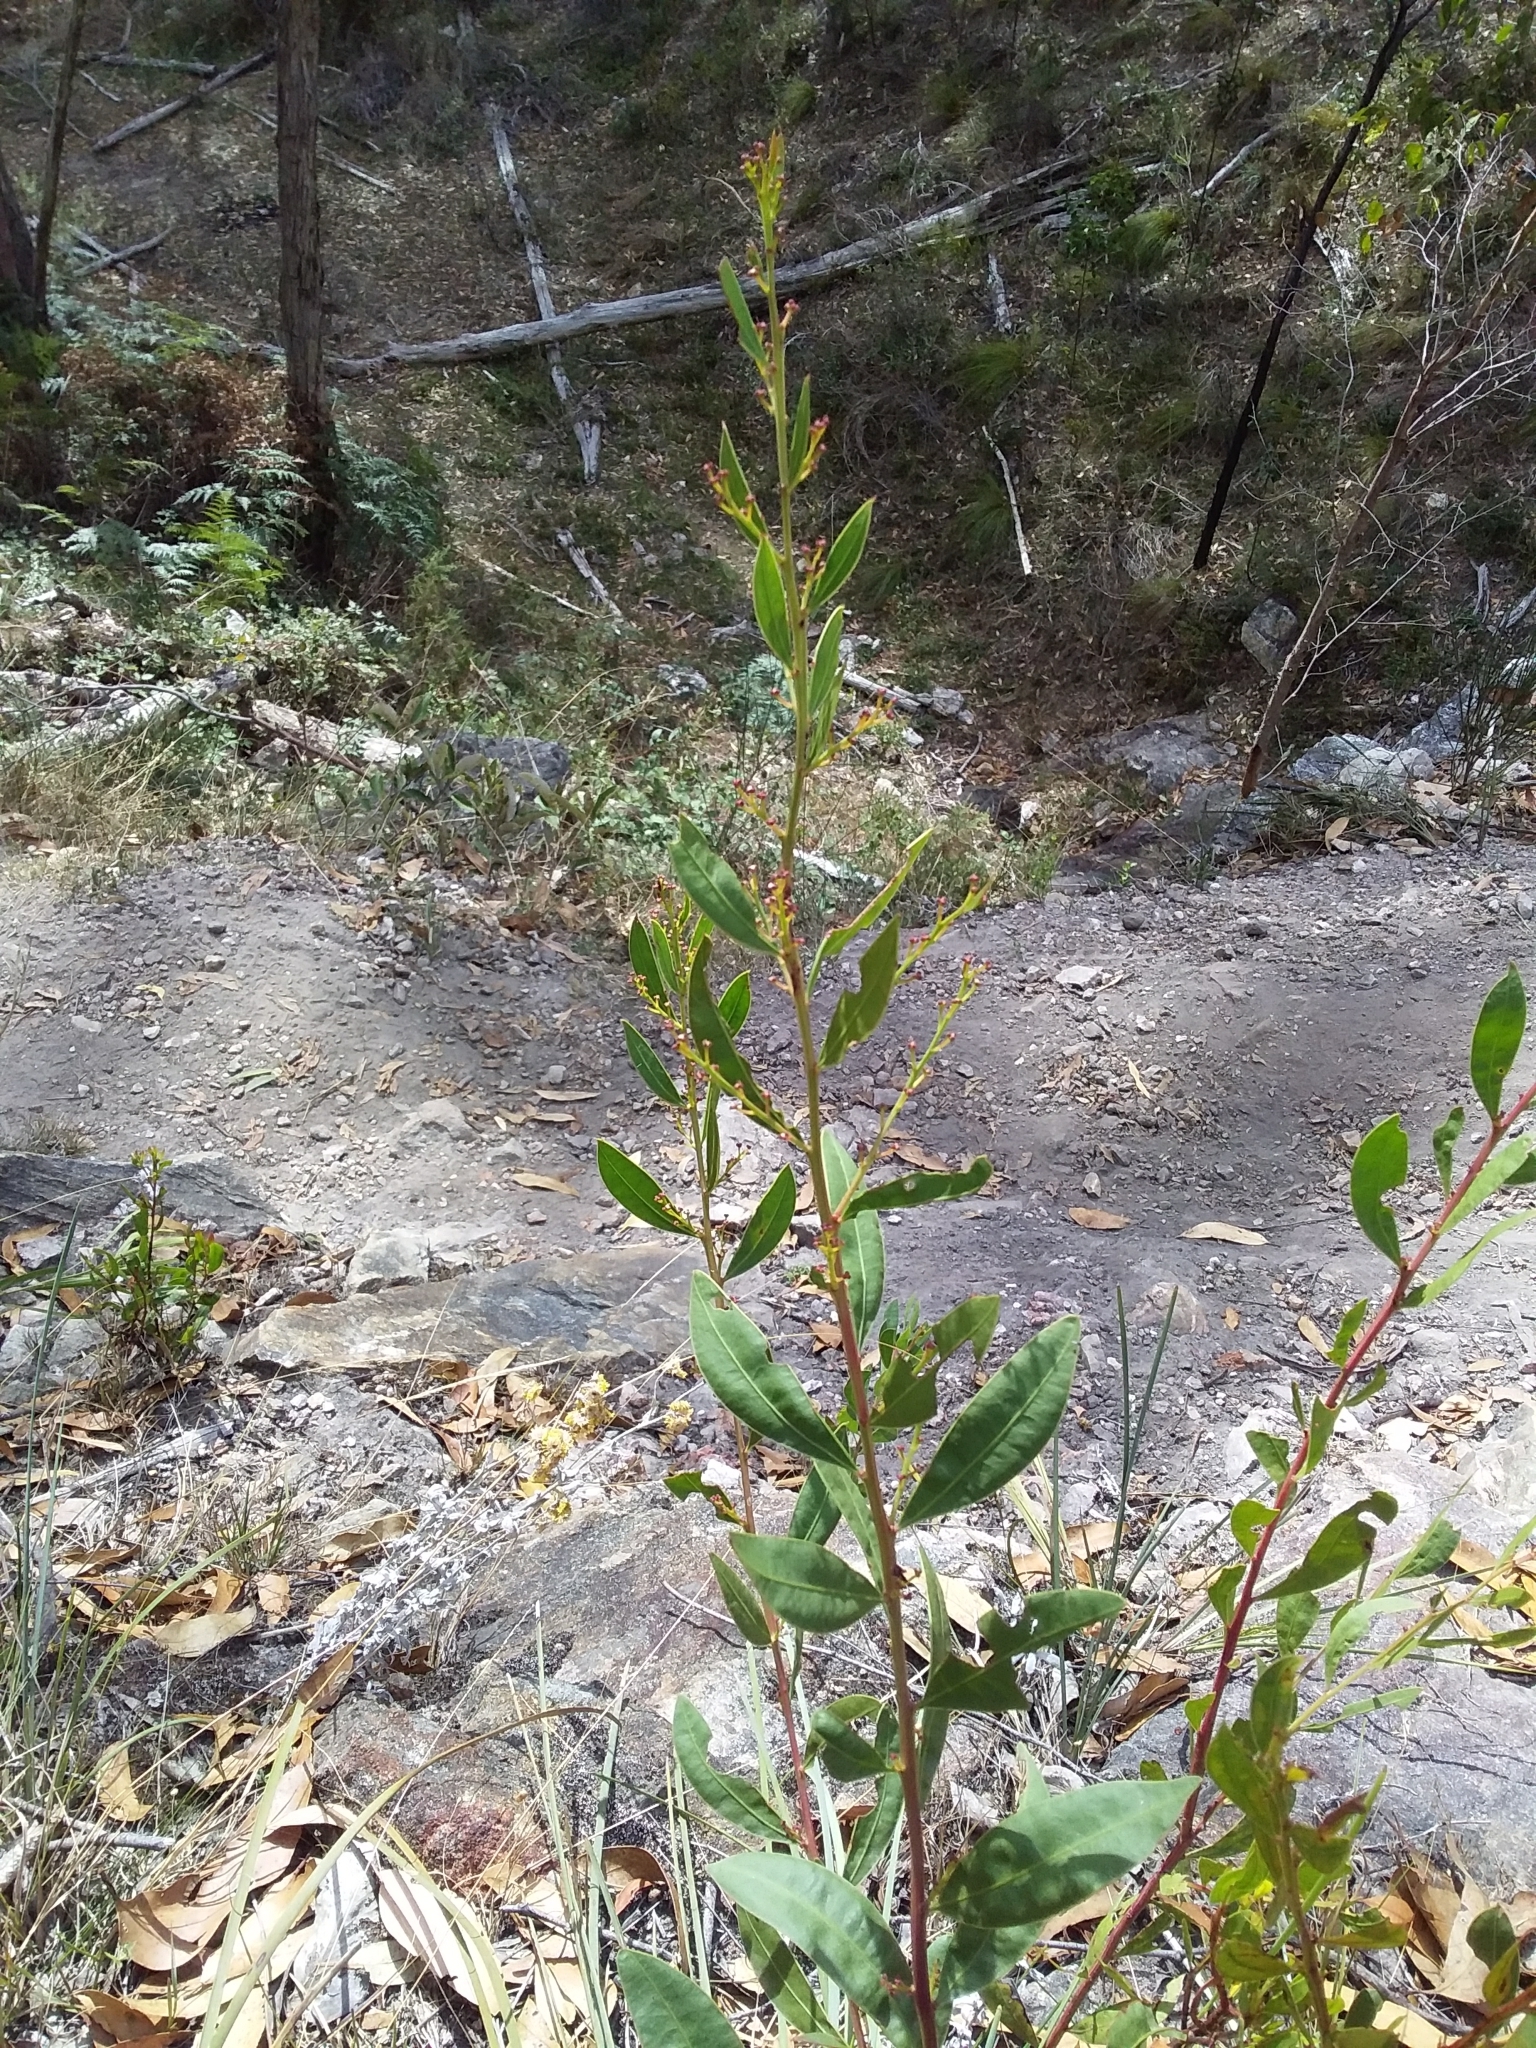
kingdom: Plantae
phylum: Tracheophyta
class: Magnoliopsida
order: Fabales
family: Fabaceae
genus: Acacia
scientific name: Acacia myrtifolia
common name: Myrtle wattle
